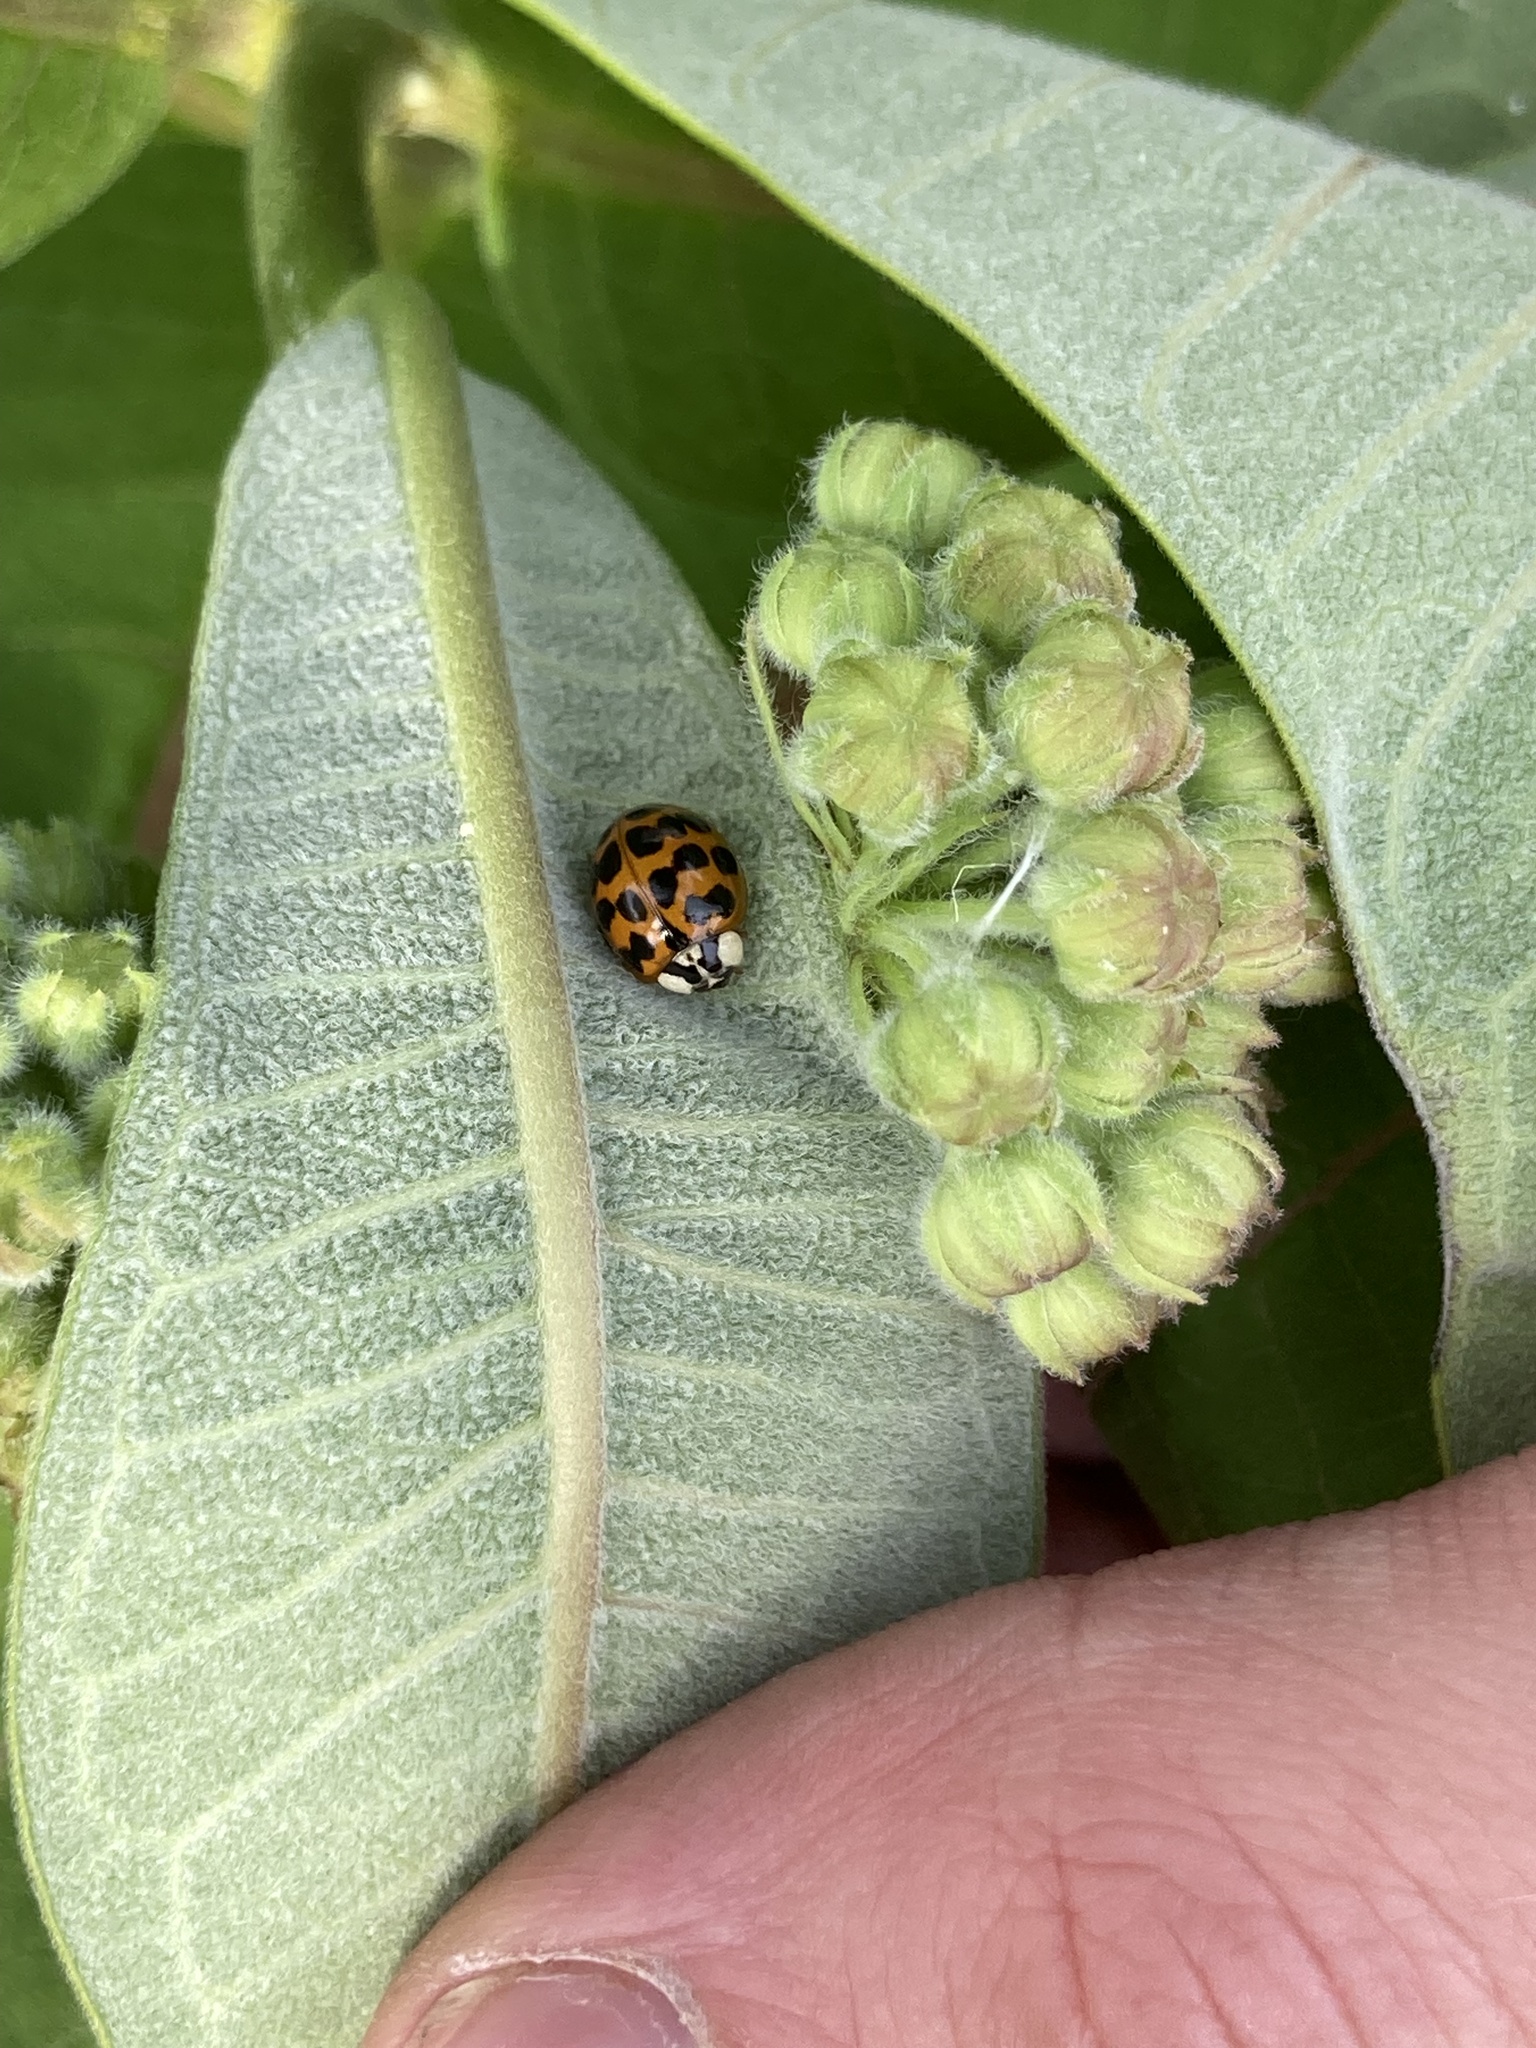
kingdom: Animalia
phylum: Arthropoda
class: Insecta
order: Coleoptera
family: Coccinellidae
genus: Harmonia
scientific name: Harmonia axyridis
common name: Harlequin ladybird
